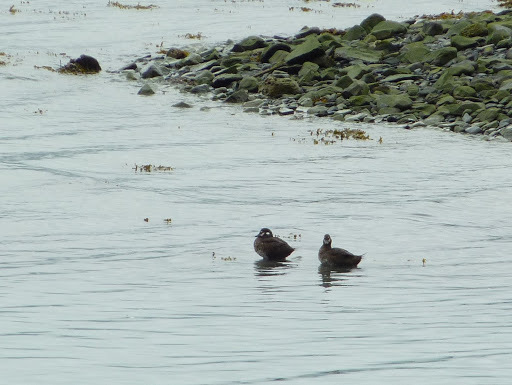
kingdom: Animalia
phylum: Chordata
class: Aves
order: Anseriformes
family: Anatidae
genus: Histrionicus
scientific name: Histrionicus histrionicus
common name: Harlequin duck
